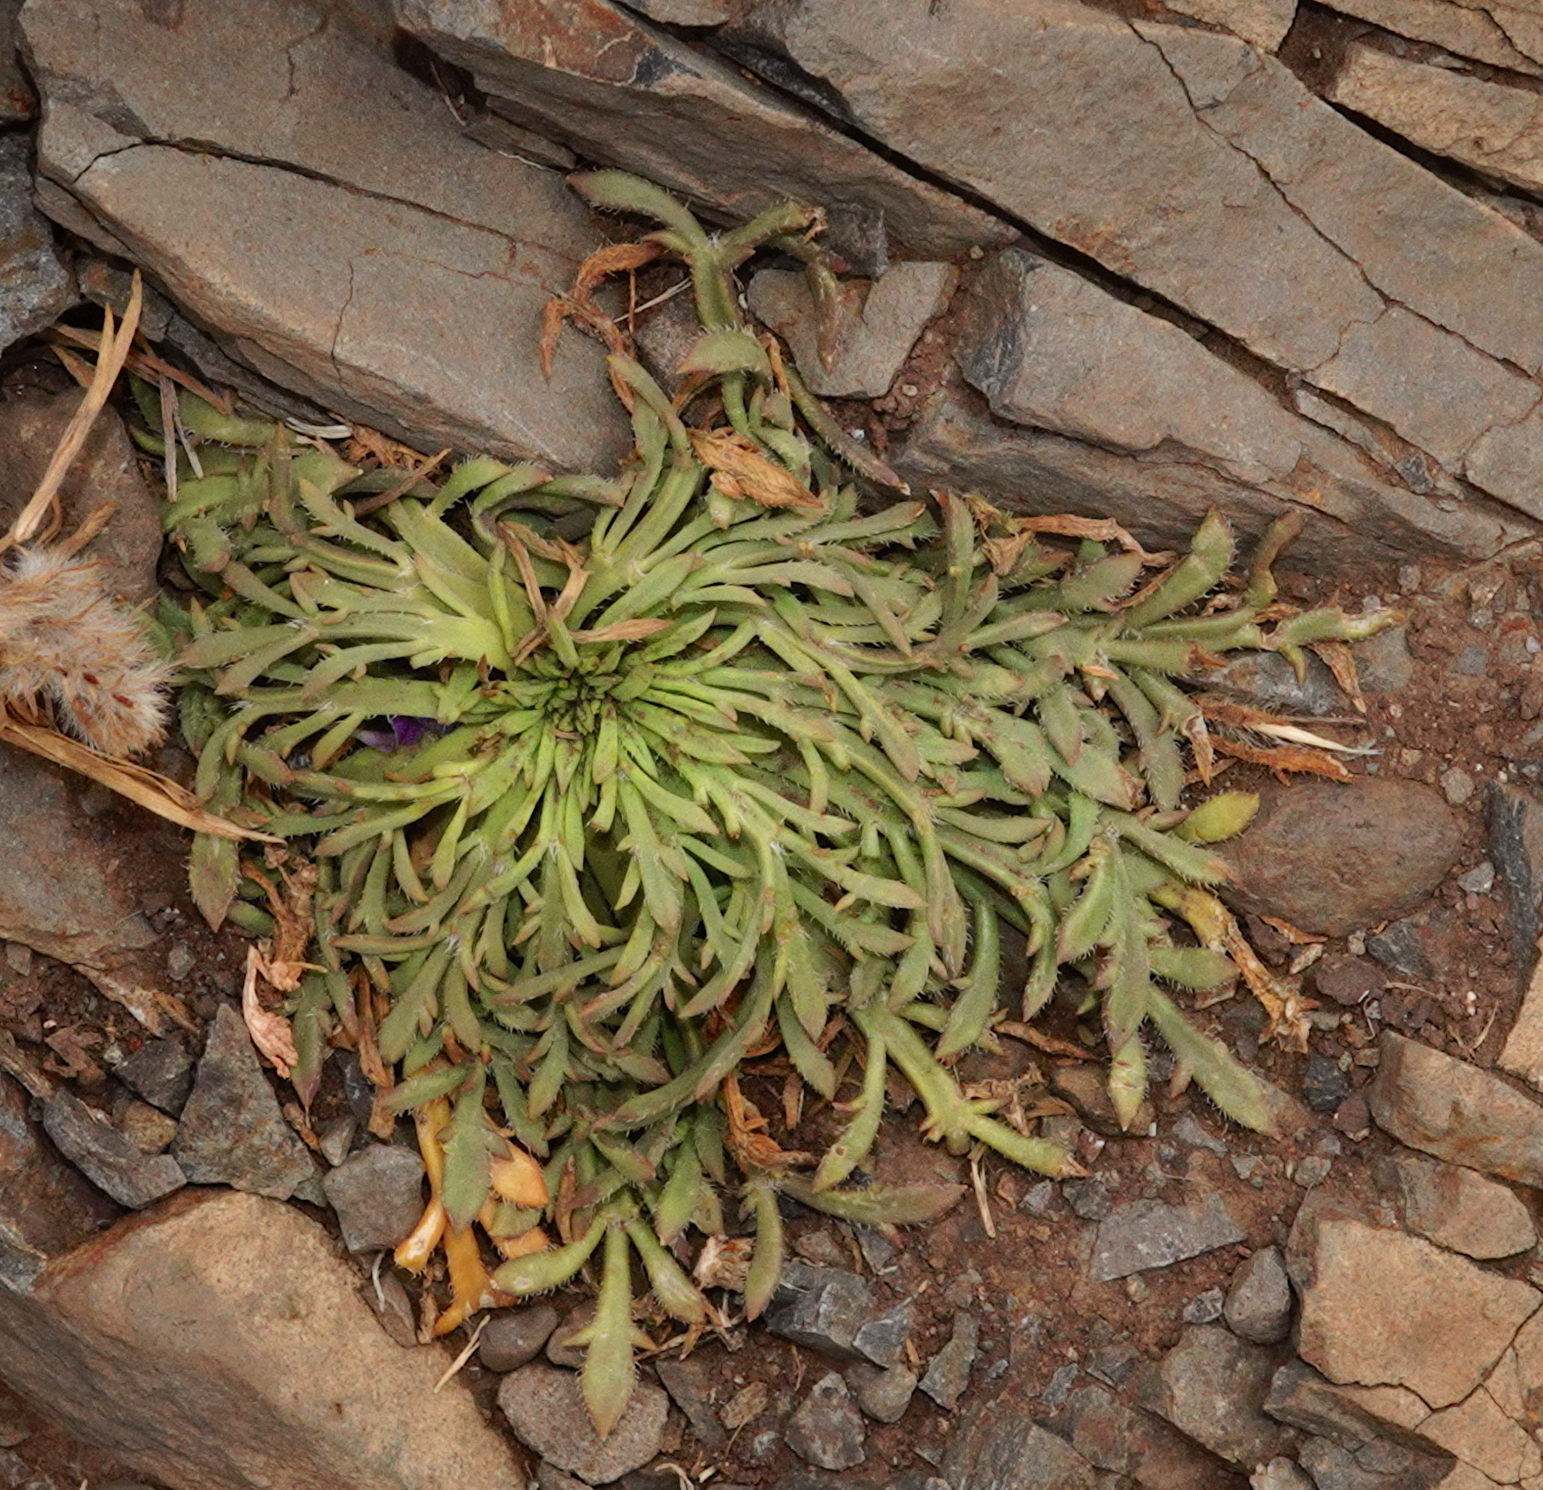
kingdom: Plantae
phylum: Tracheophyta
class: Magnoliopsida
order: Lamiales
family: Plantaginaceae
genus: Plantago
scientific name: Plantago coronopus
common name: Buck's-horn plantain
